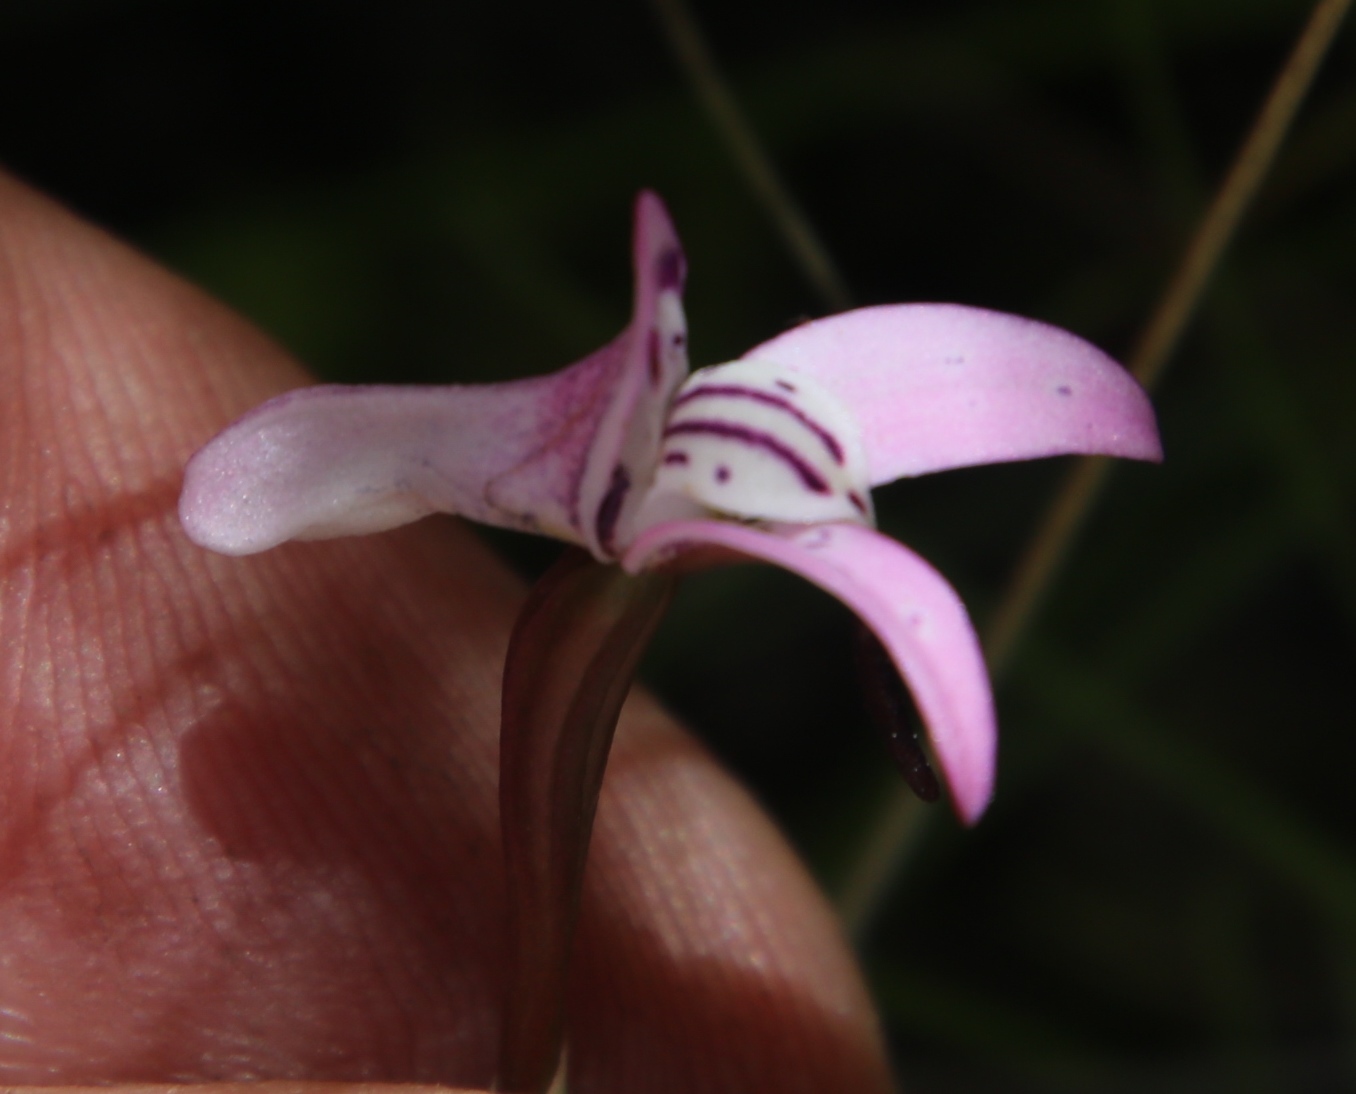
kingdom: Plantae
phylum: Tracheophyta
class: Liliopsida
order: Asparagales
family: Orchidaceae
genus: Disa
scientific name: Disa inflexa
